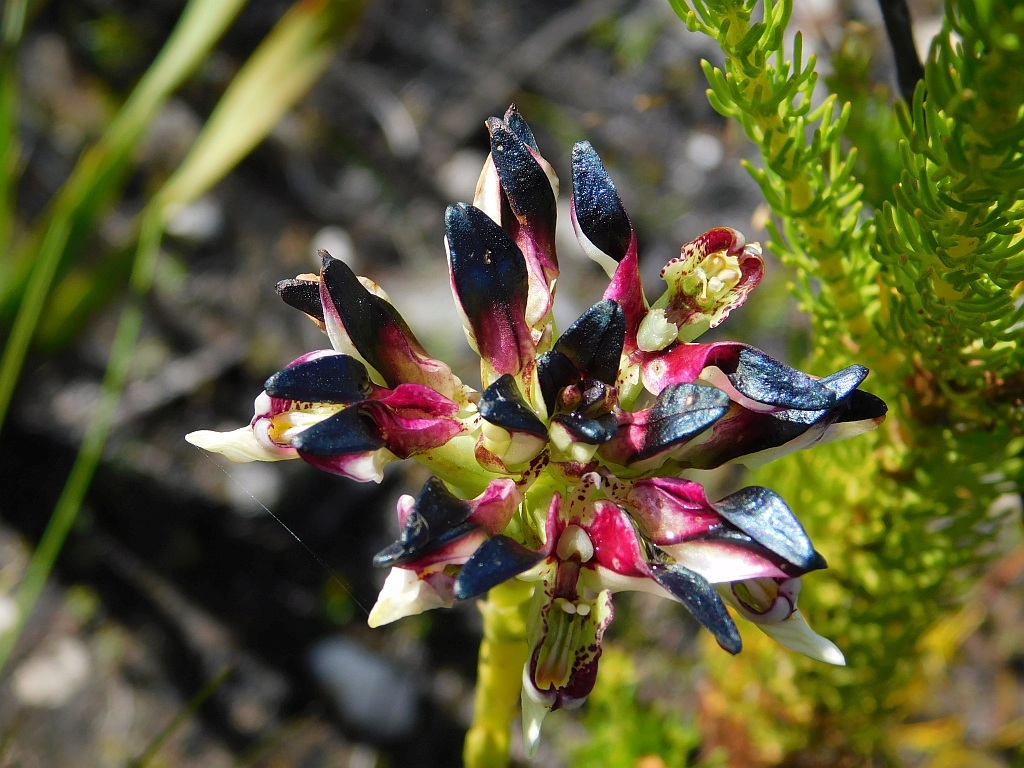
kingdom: Plantae
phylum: Tracheophyta
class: Liliopsida
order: Asparagales
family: Orchidaceae
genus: Disa
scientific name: Disa atricapilla
